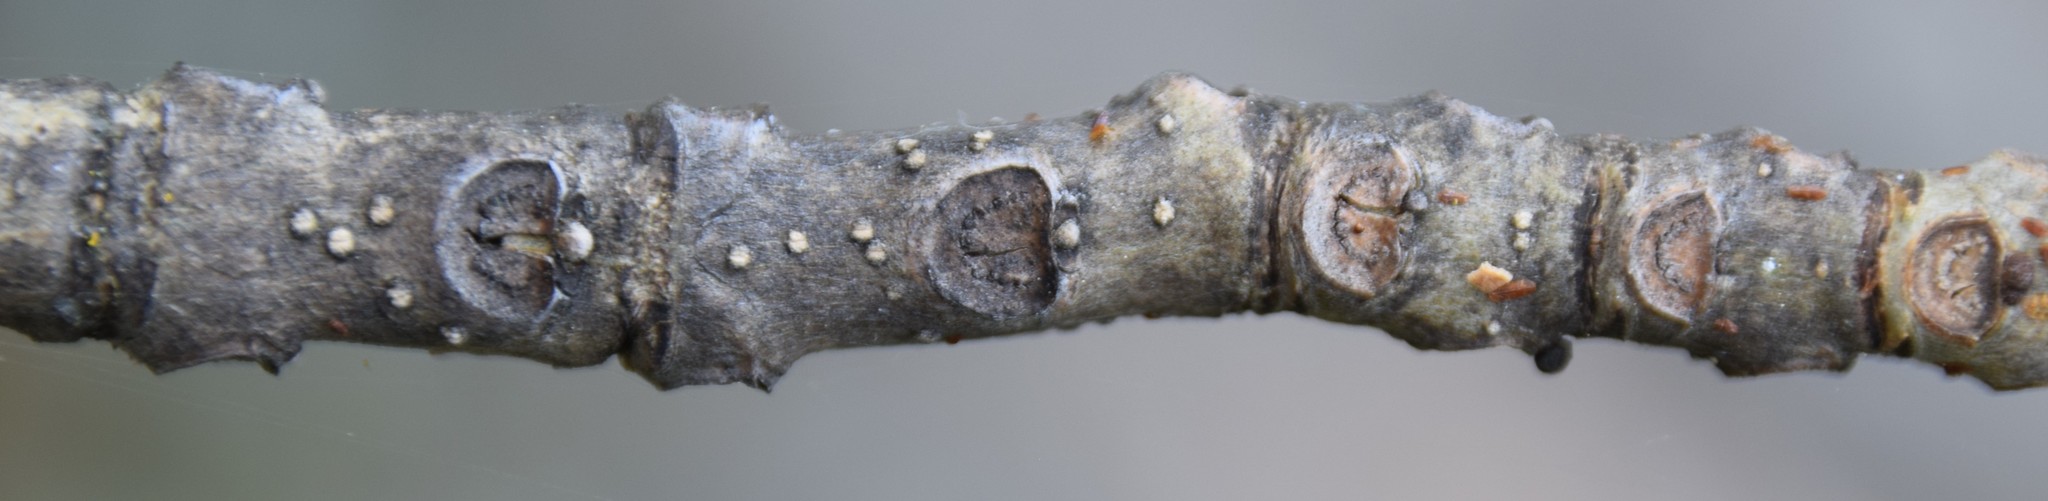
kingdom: Plantae
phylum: Tracheophyta
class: Magnoliopsida
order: Lamiales
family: Oleaceae
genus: Fraxinus
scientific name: Fraxinus nigra
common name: Black ash
